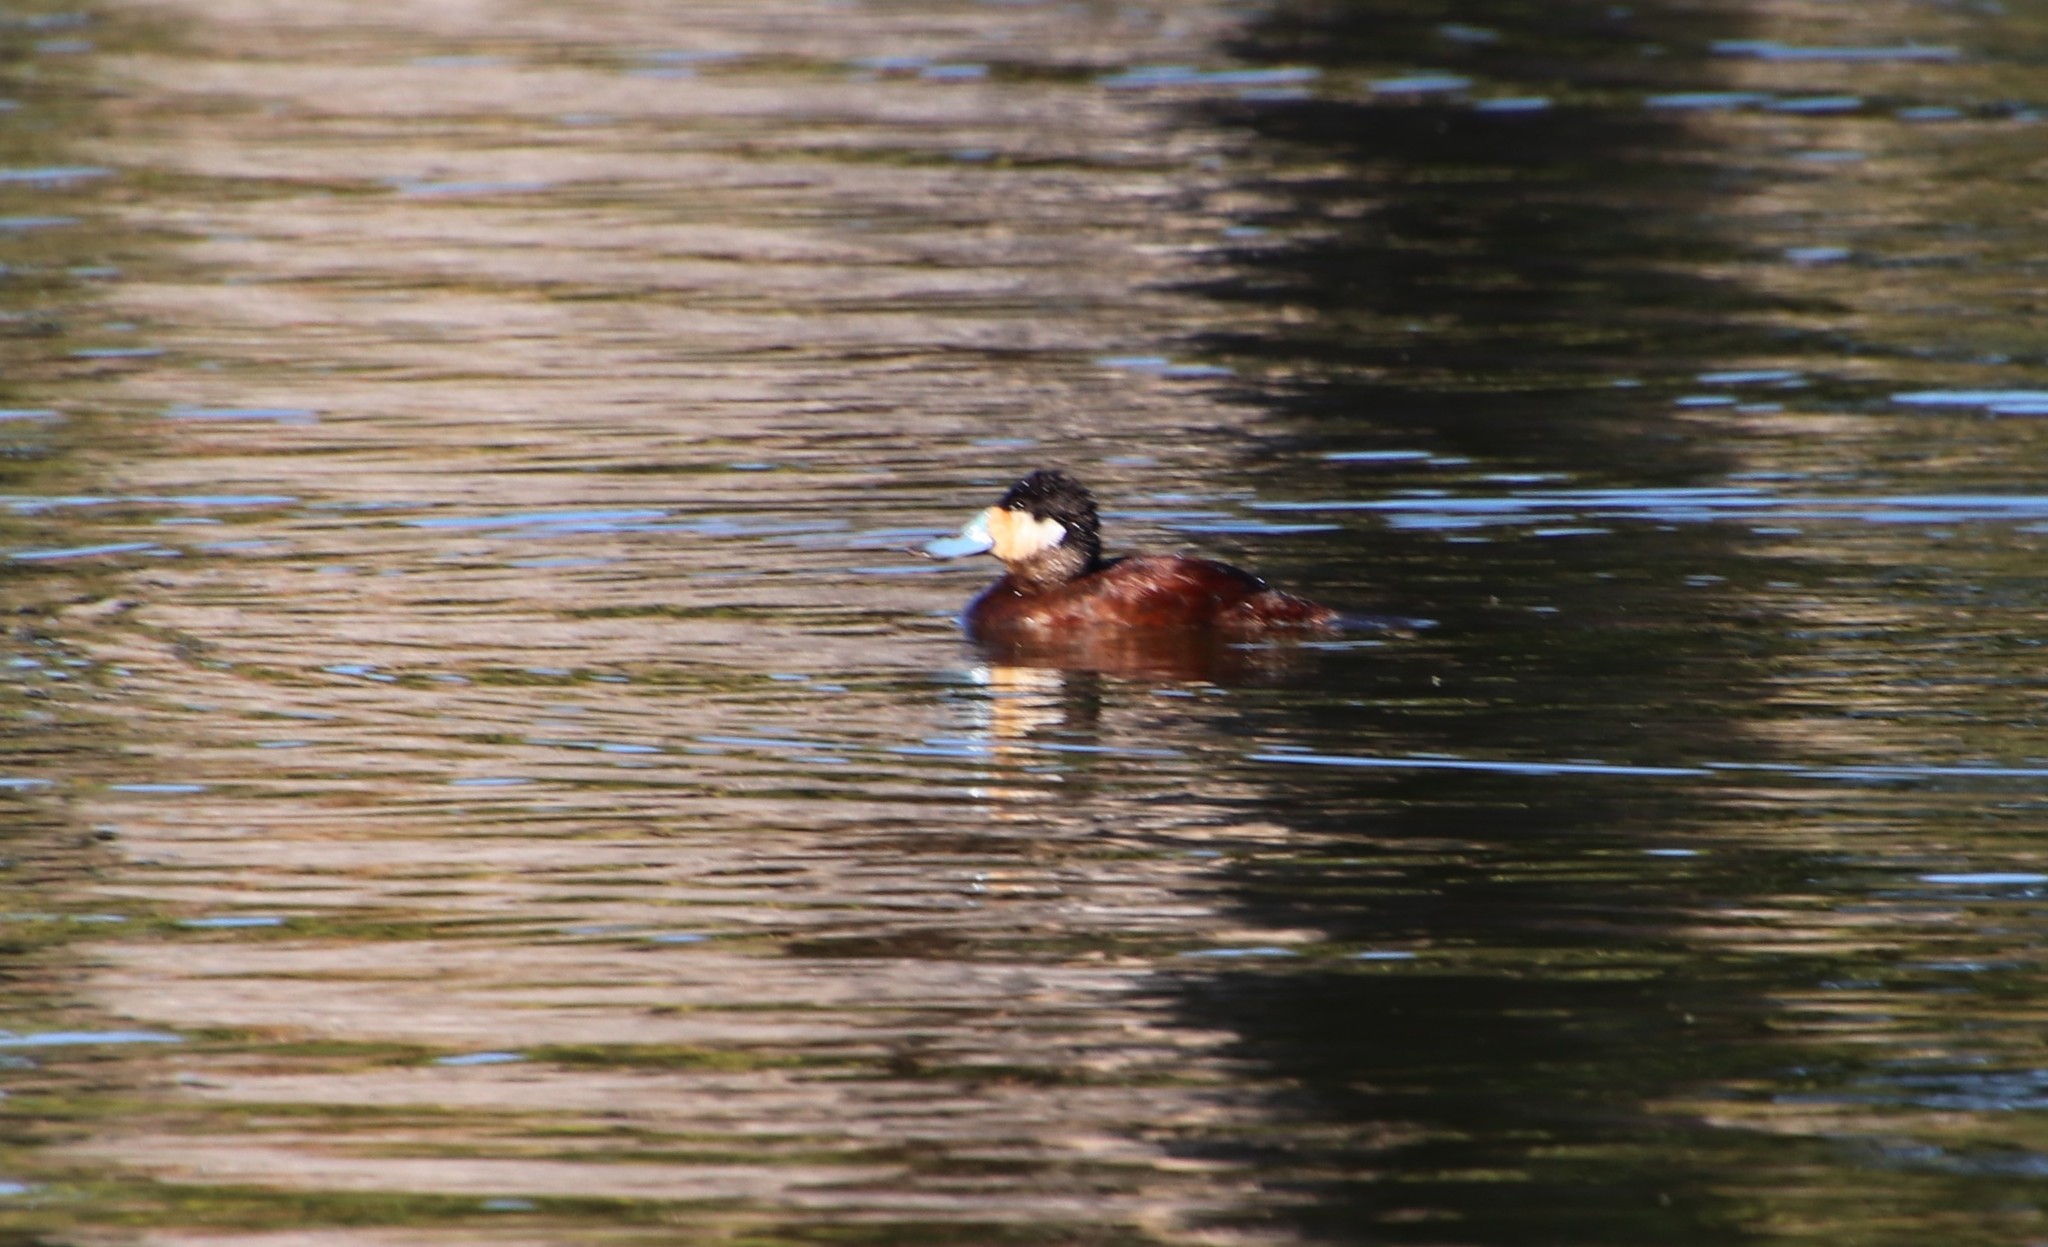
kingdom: Animalia
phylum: Chordata
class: Aves
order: Anseriformes
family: Anatidae
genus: Oxyura
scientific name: Oxyura jamaicensis
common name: Ruddy duck
